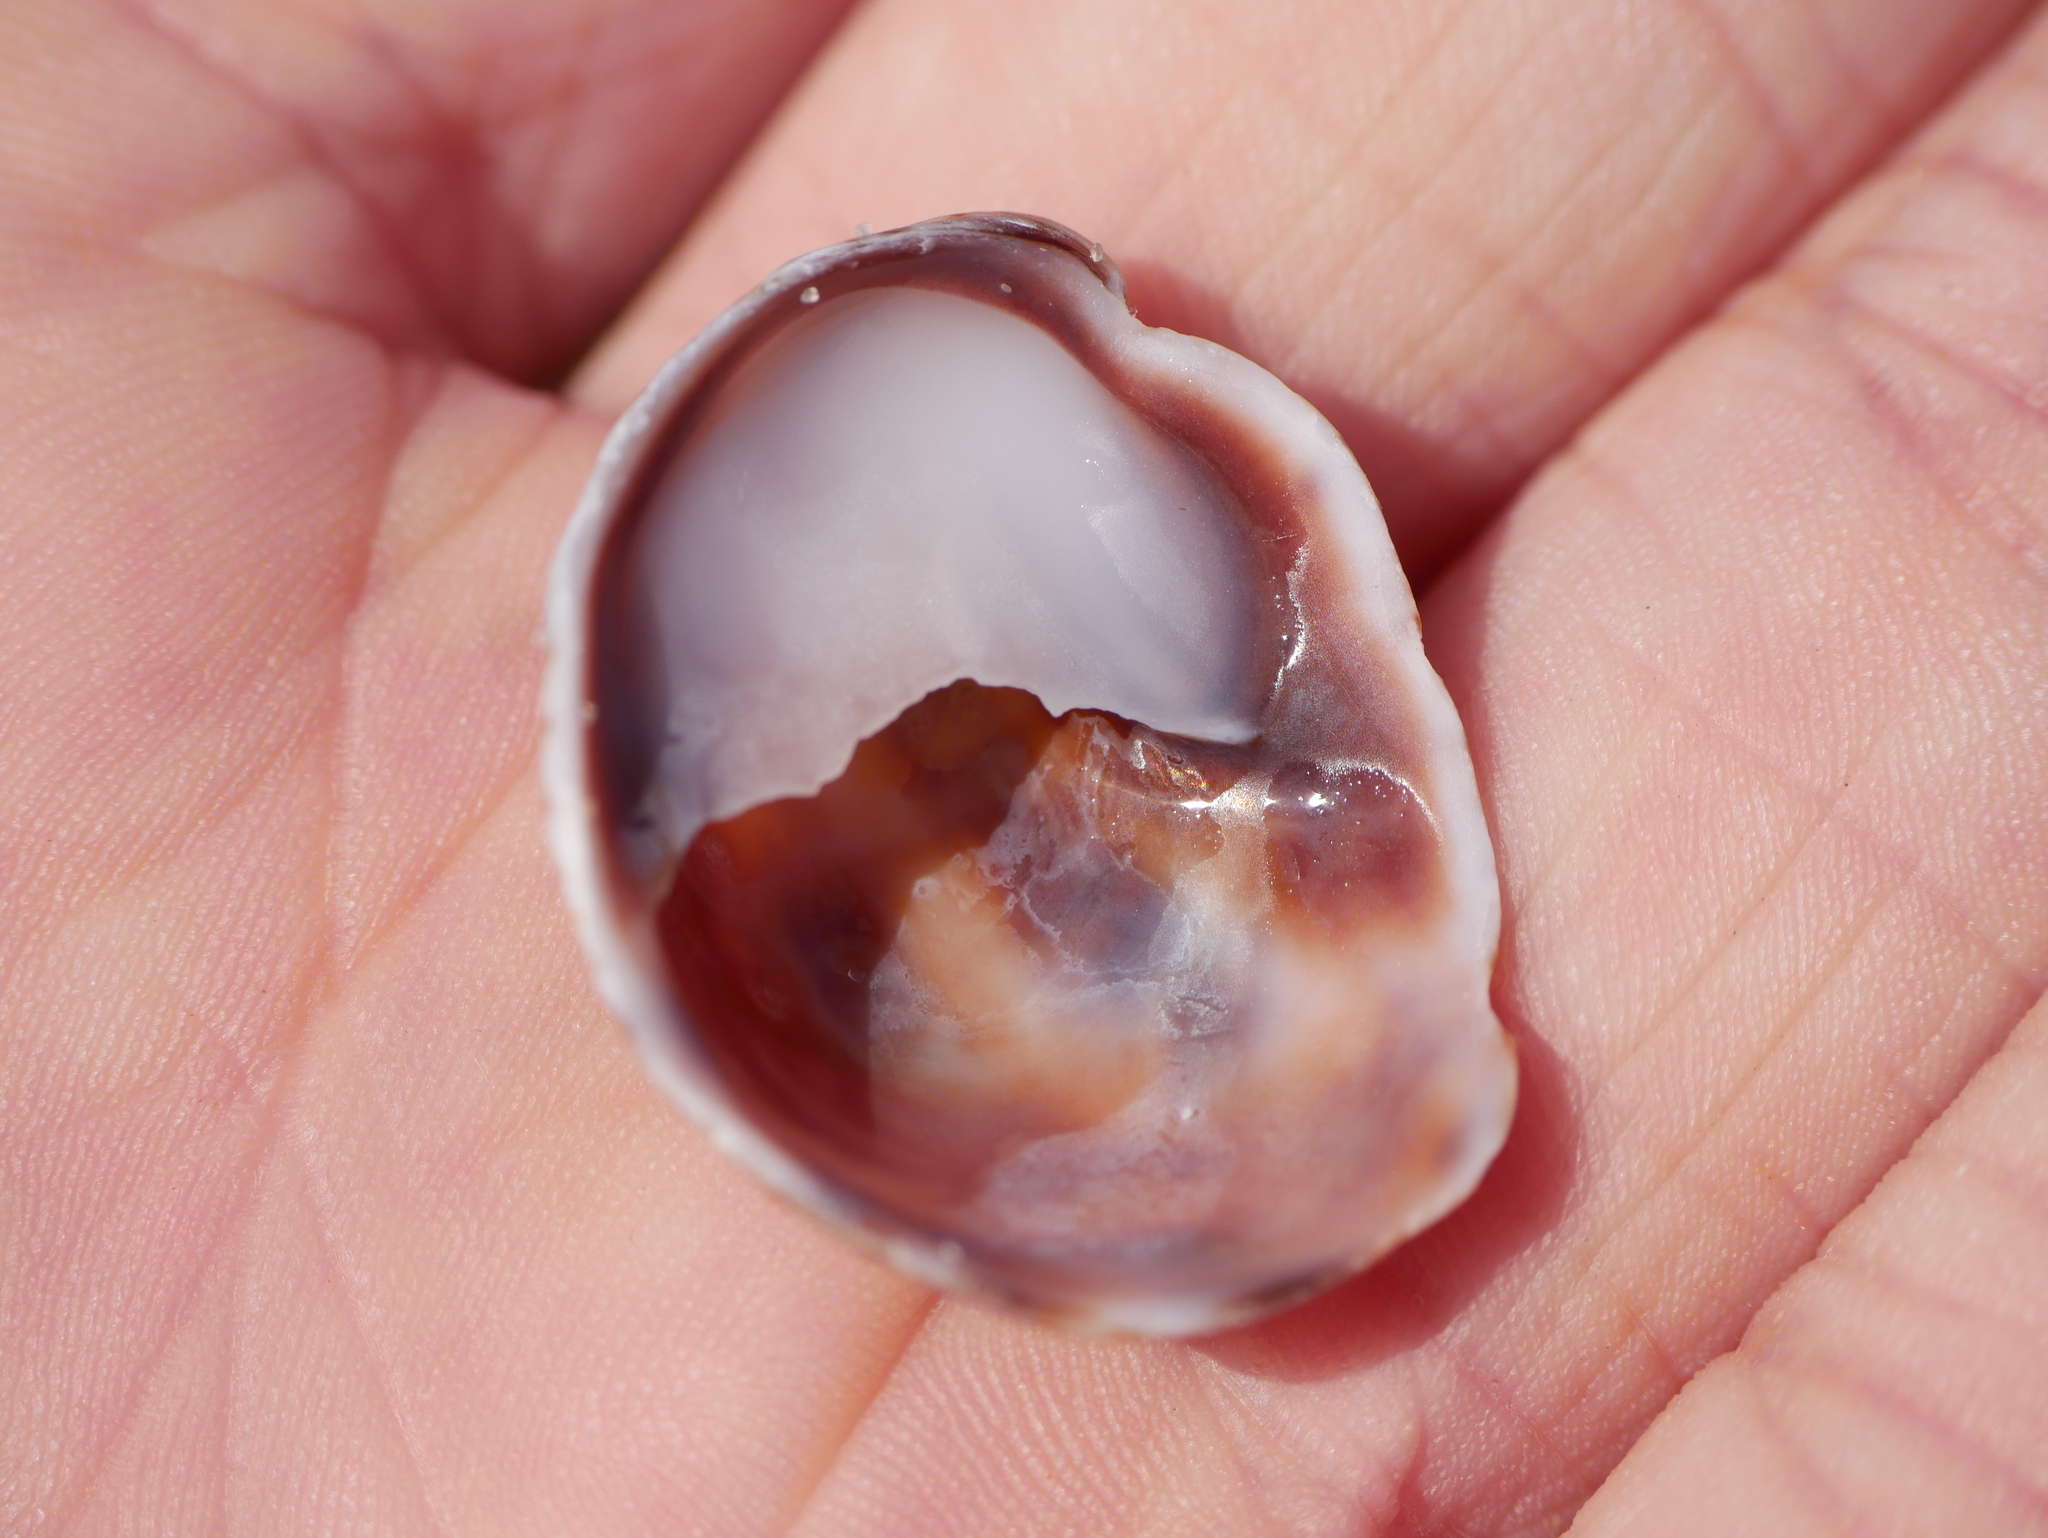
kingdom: Animalia
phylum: Mollusca
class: Gastropoda
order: Littorinimorpha
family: Calyptraeidae
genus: Crepidula
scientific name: Crepidula fornicata
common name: Slipper limpet
